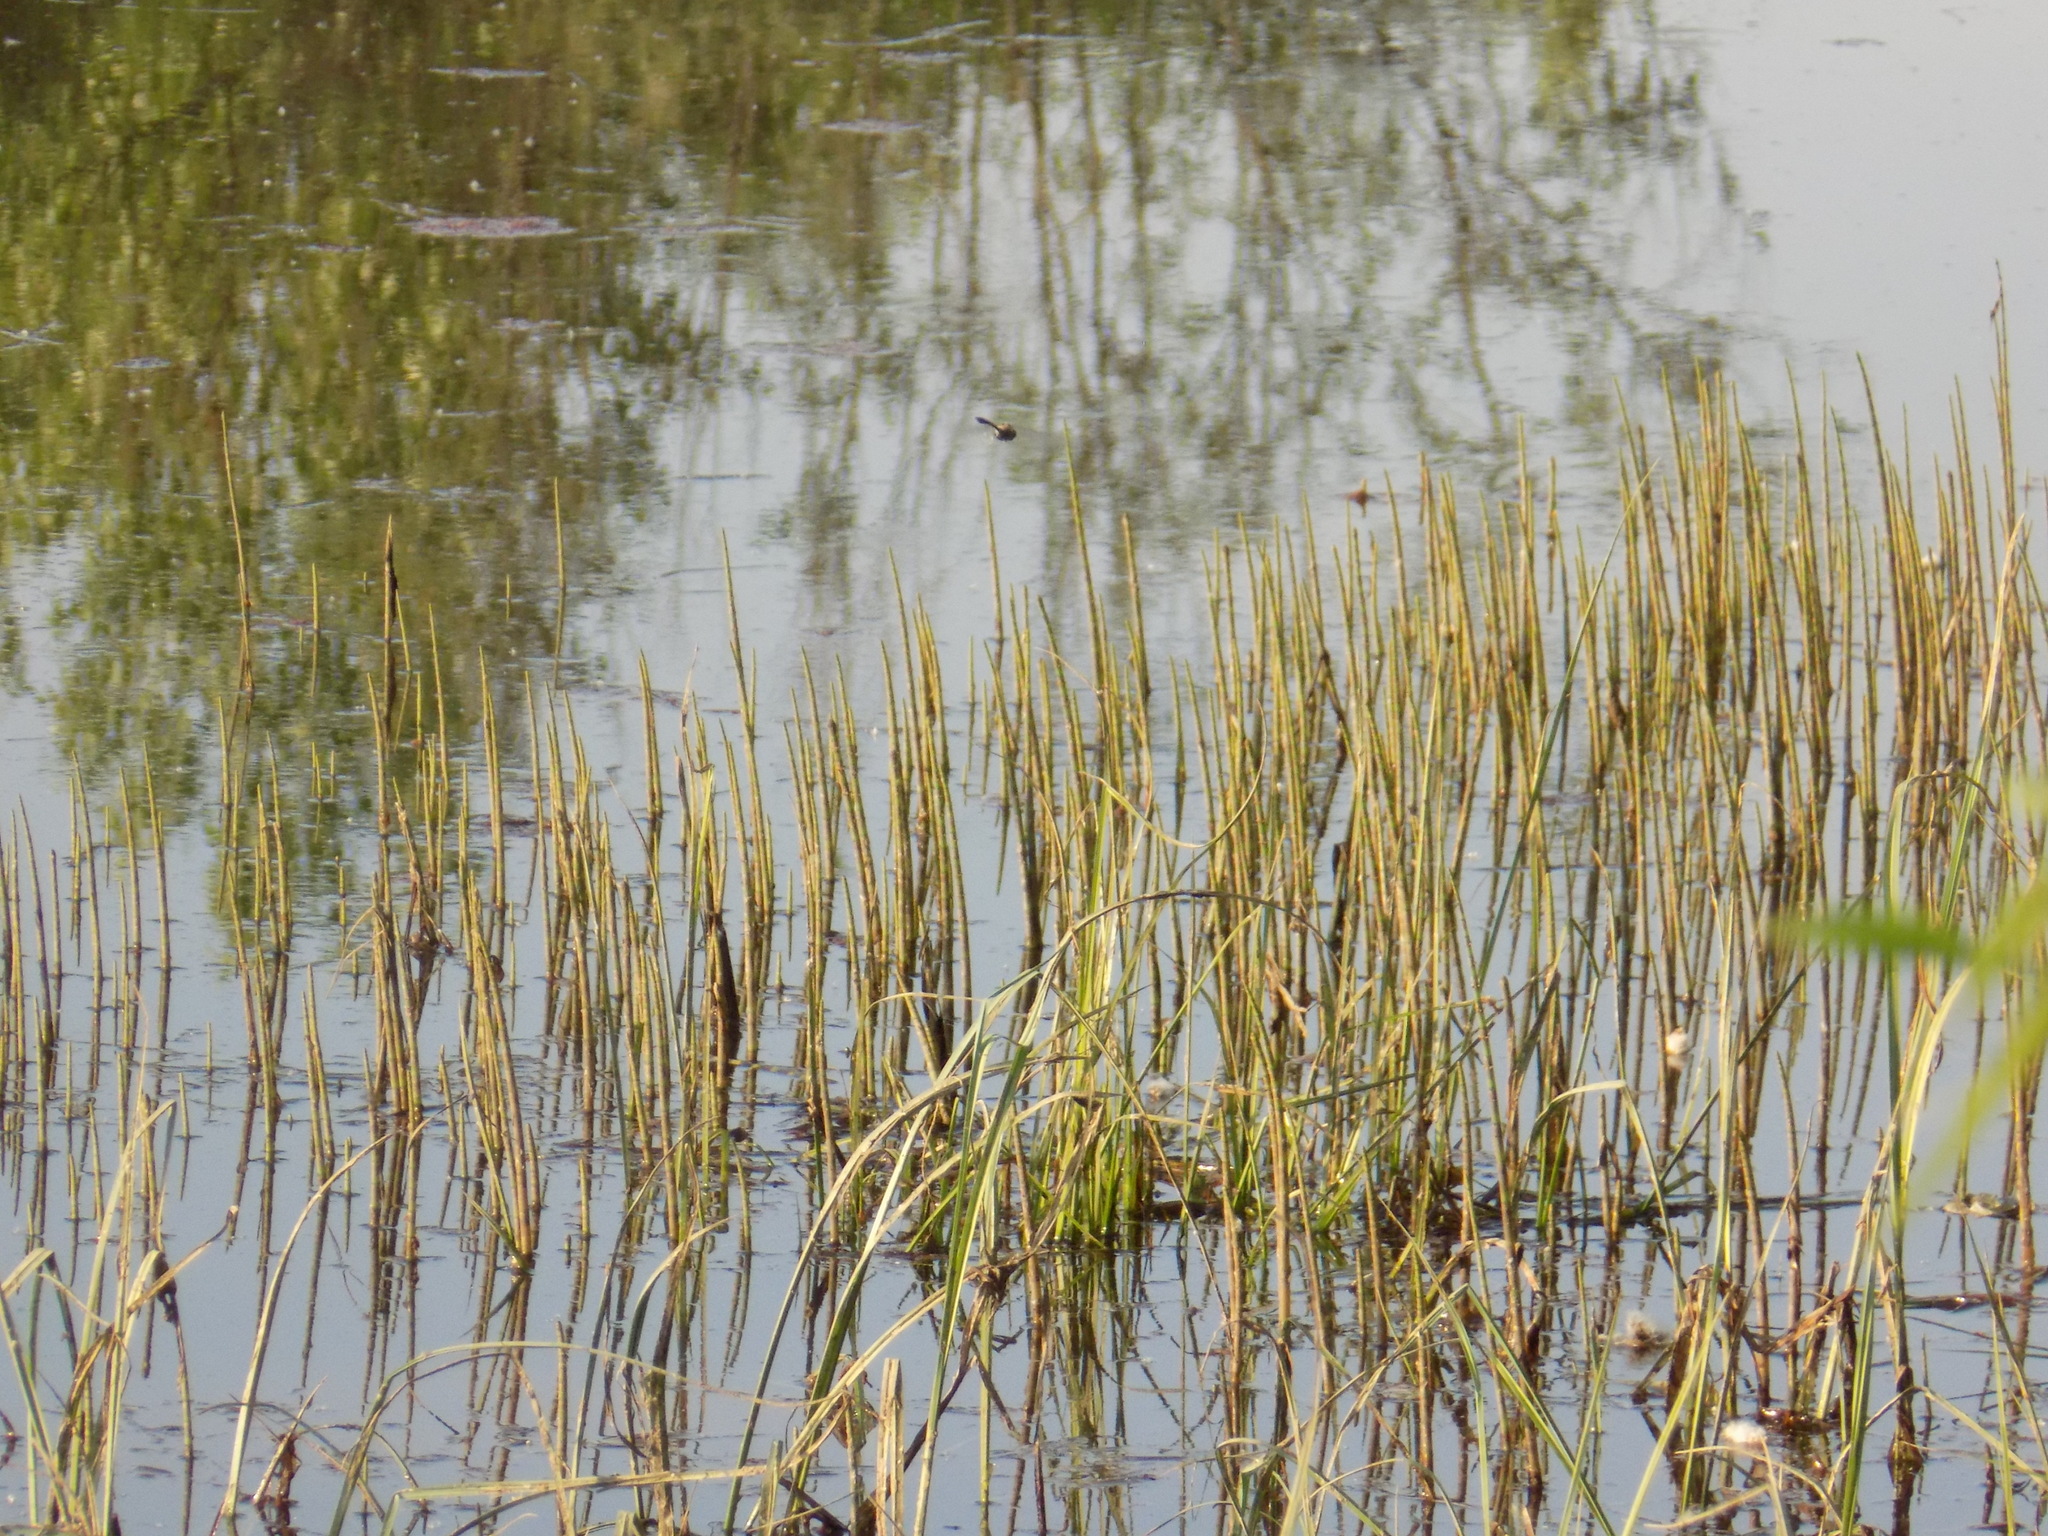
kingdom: Plantae
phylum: Tracheophyta
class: Polypodiopsida
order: Equisetales
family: Equisetaceae
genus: Equisetum
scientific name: Equisetum fluviatile
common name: Water horsetail
